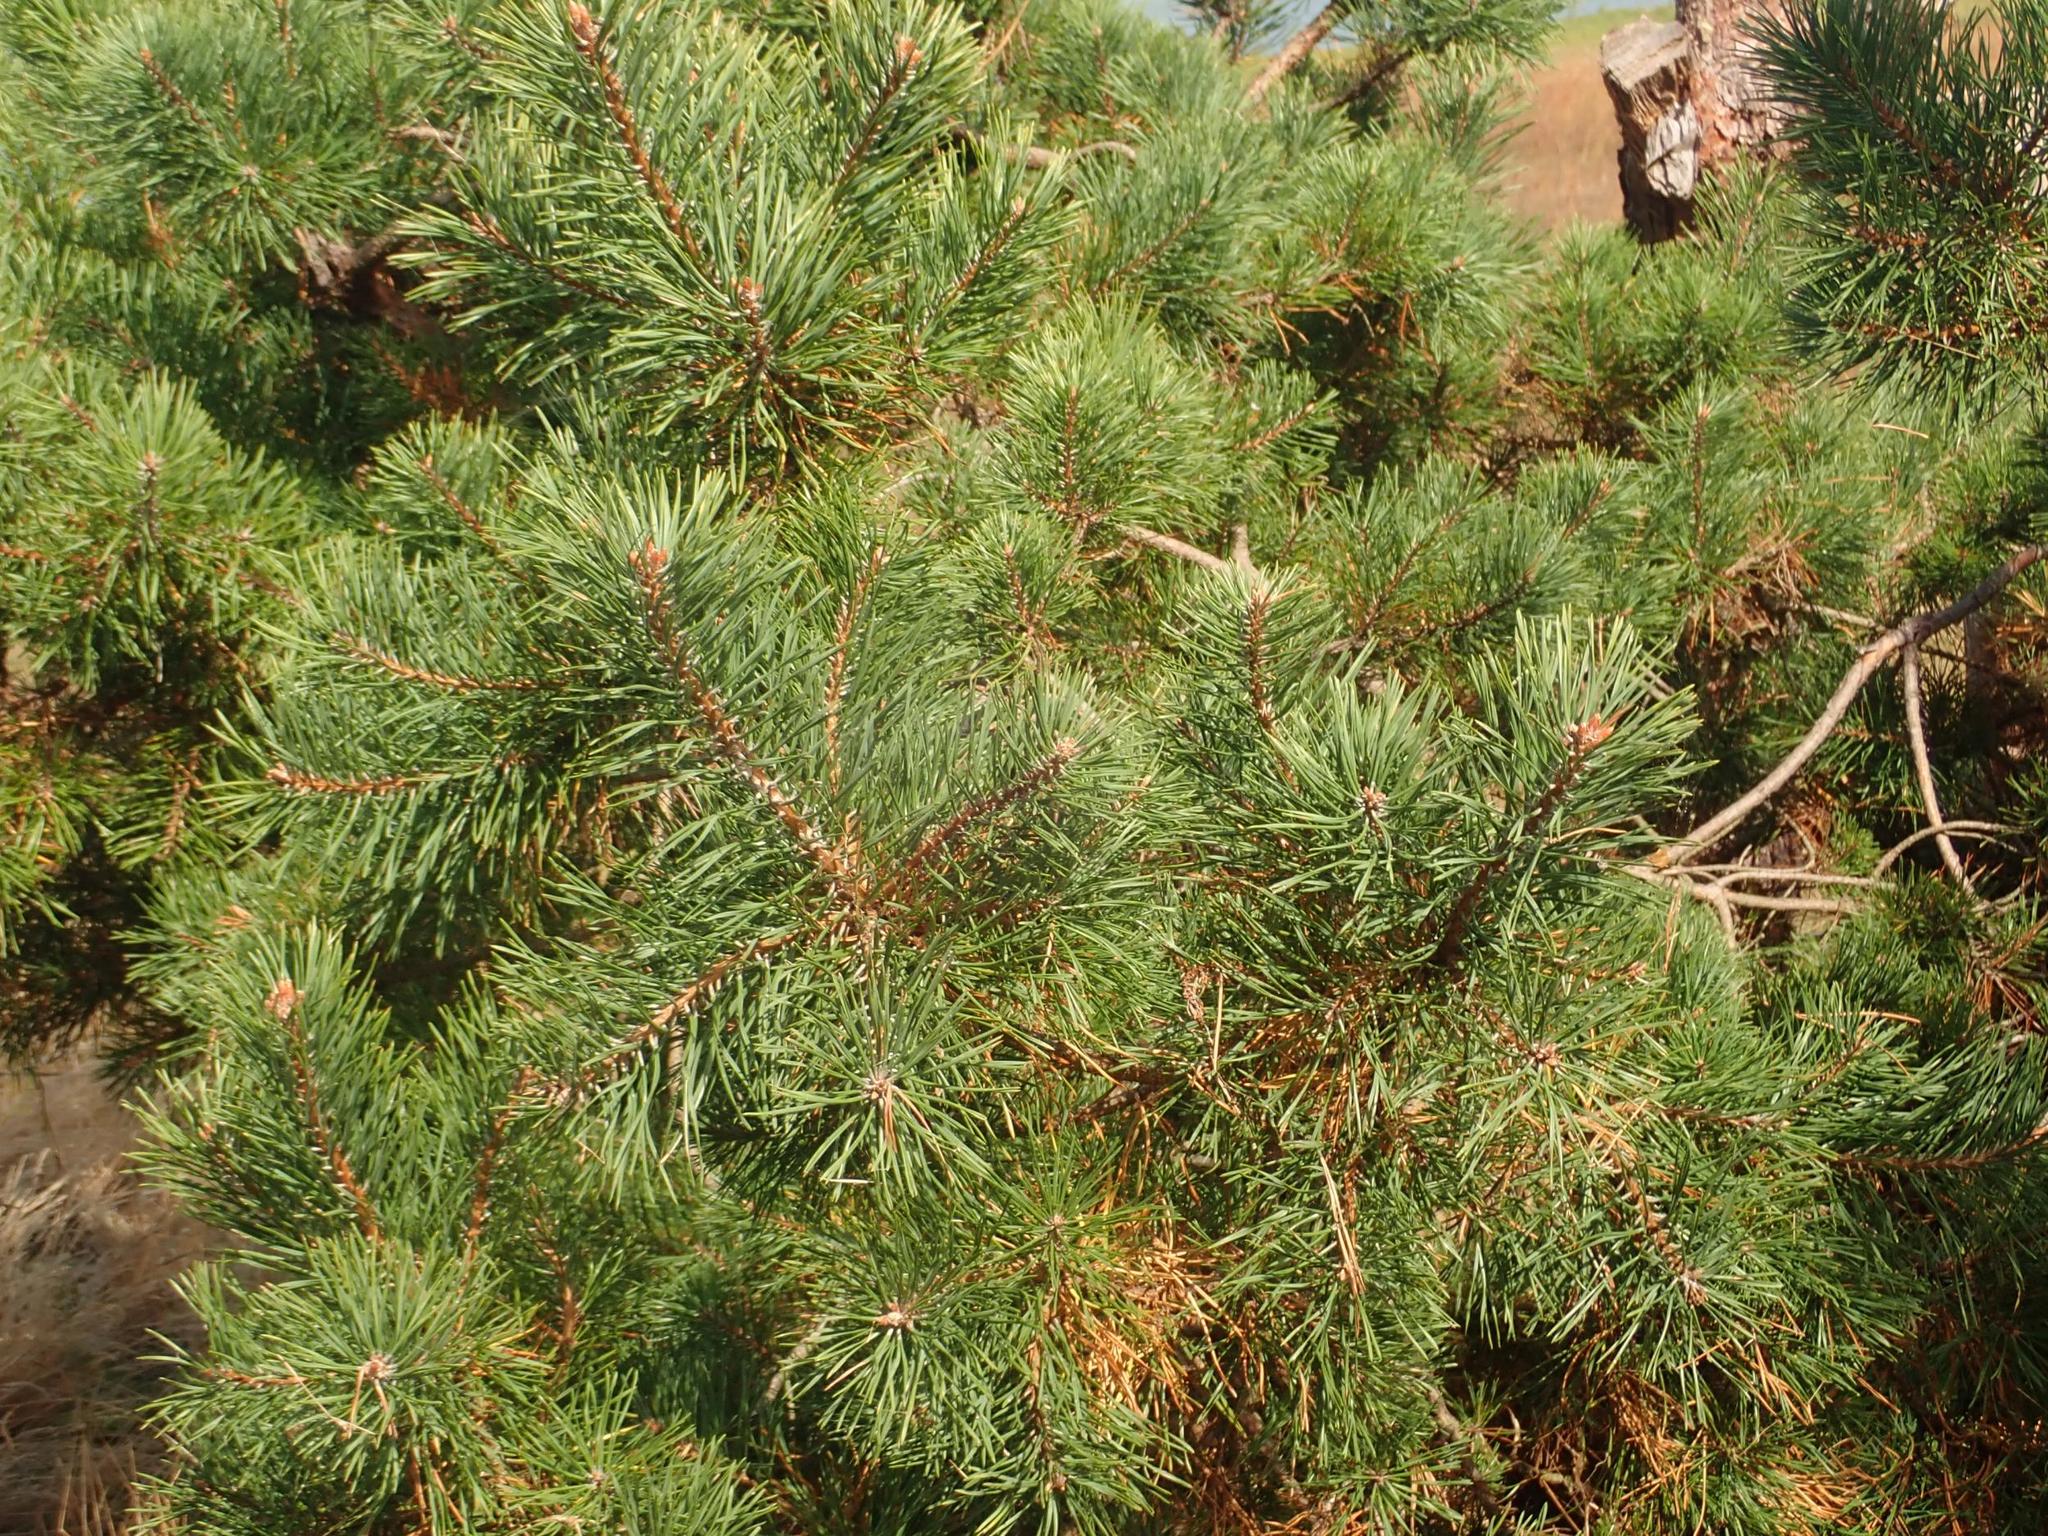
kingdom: Plantae
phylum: Tracheophyta
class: Pinopsida
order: Pinales
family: Pinaceae
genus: Pinus
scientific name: Pinus sylvestris
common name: Scots pine
